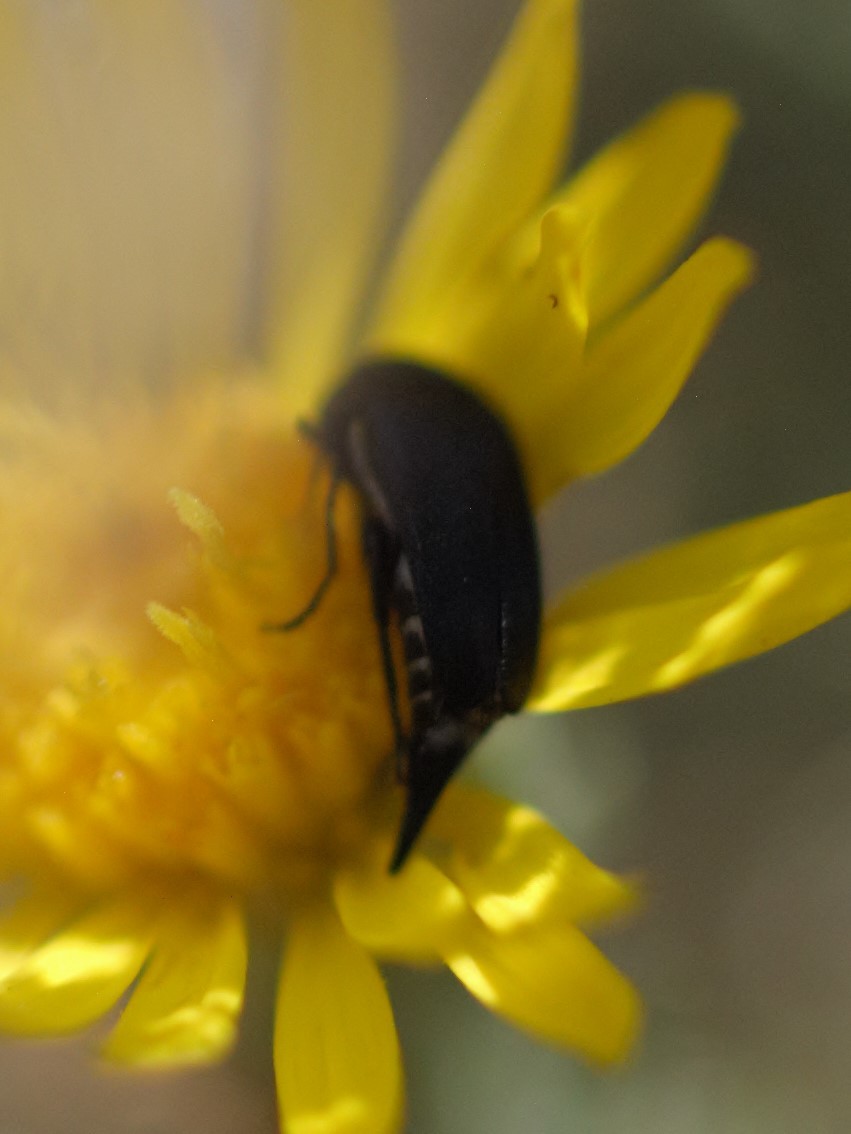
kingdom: Animalia
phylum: Arthropoda
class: Insecta
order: Coleoptera
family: Mordellidae
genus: Mordella
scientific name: Mordella
